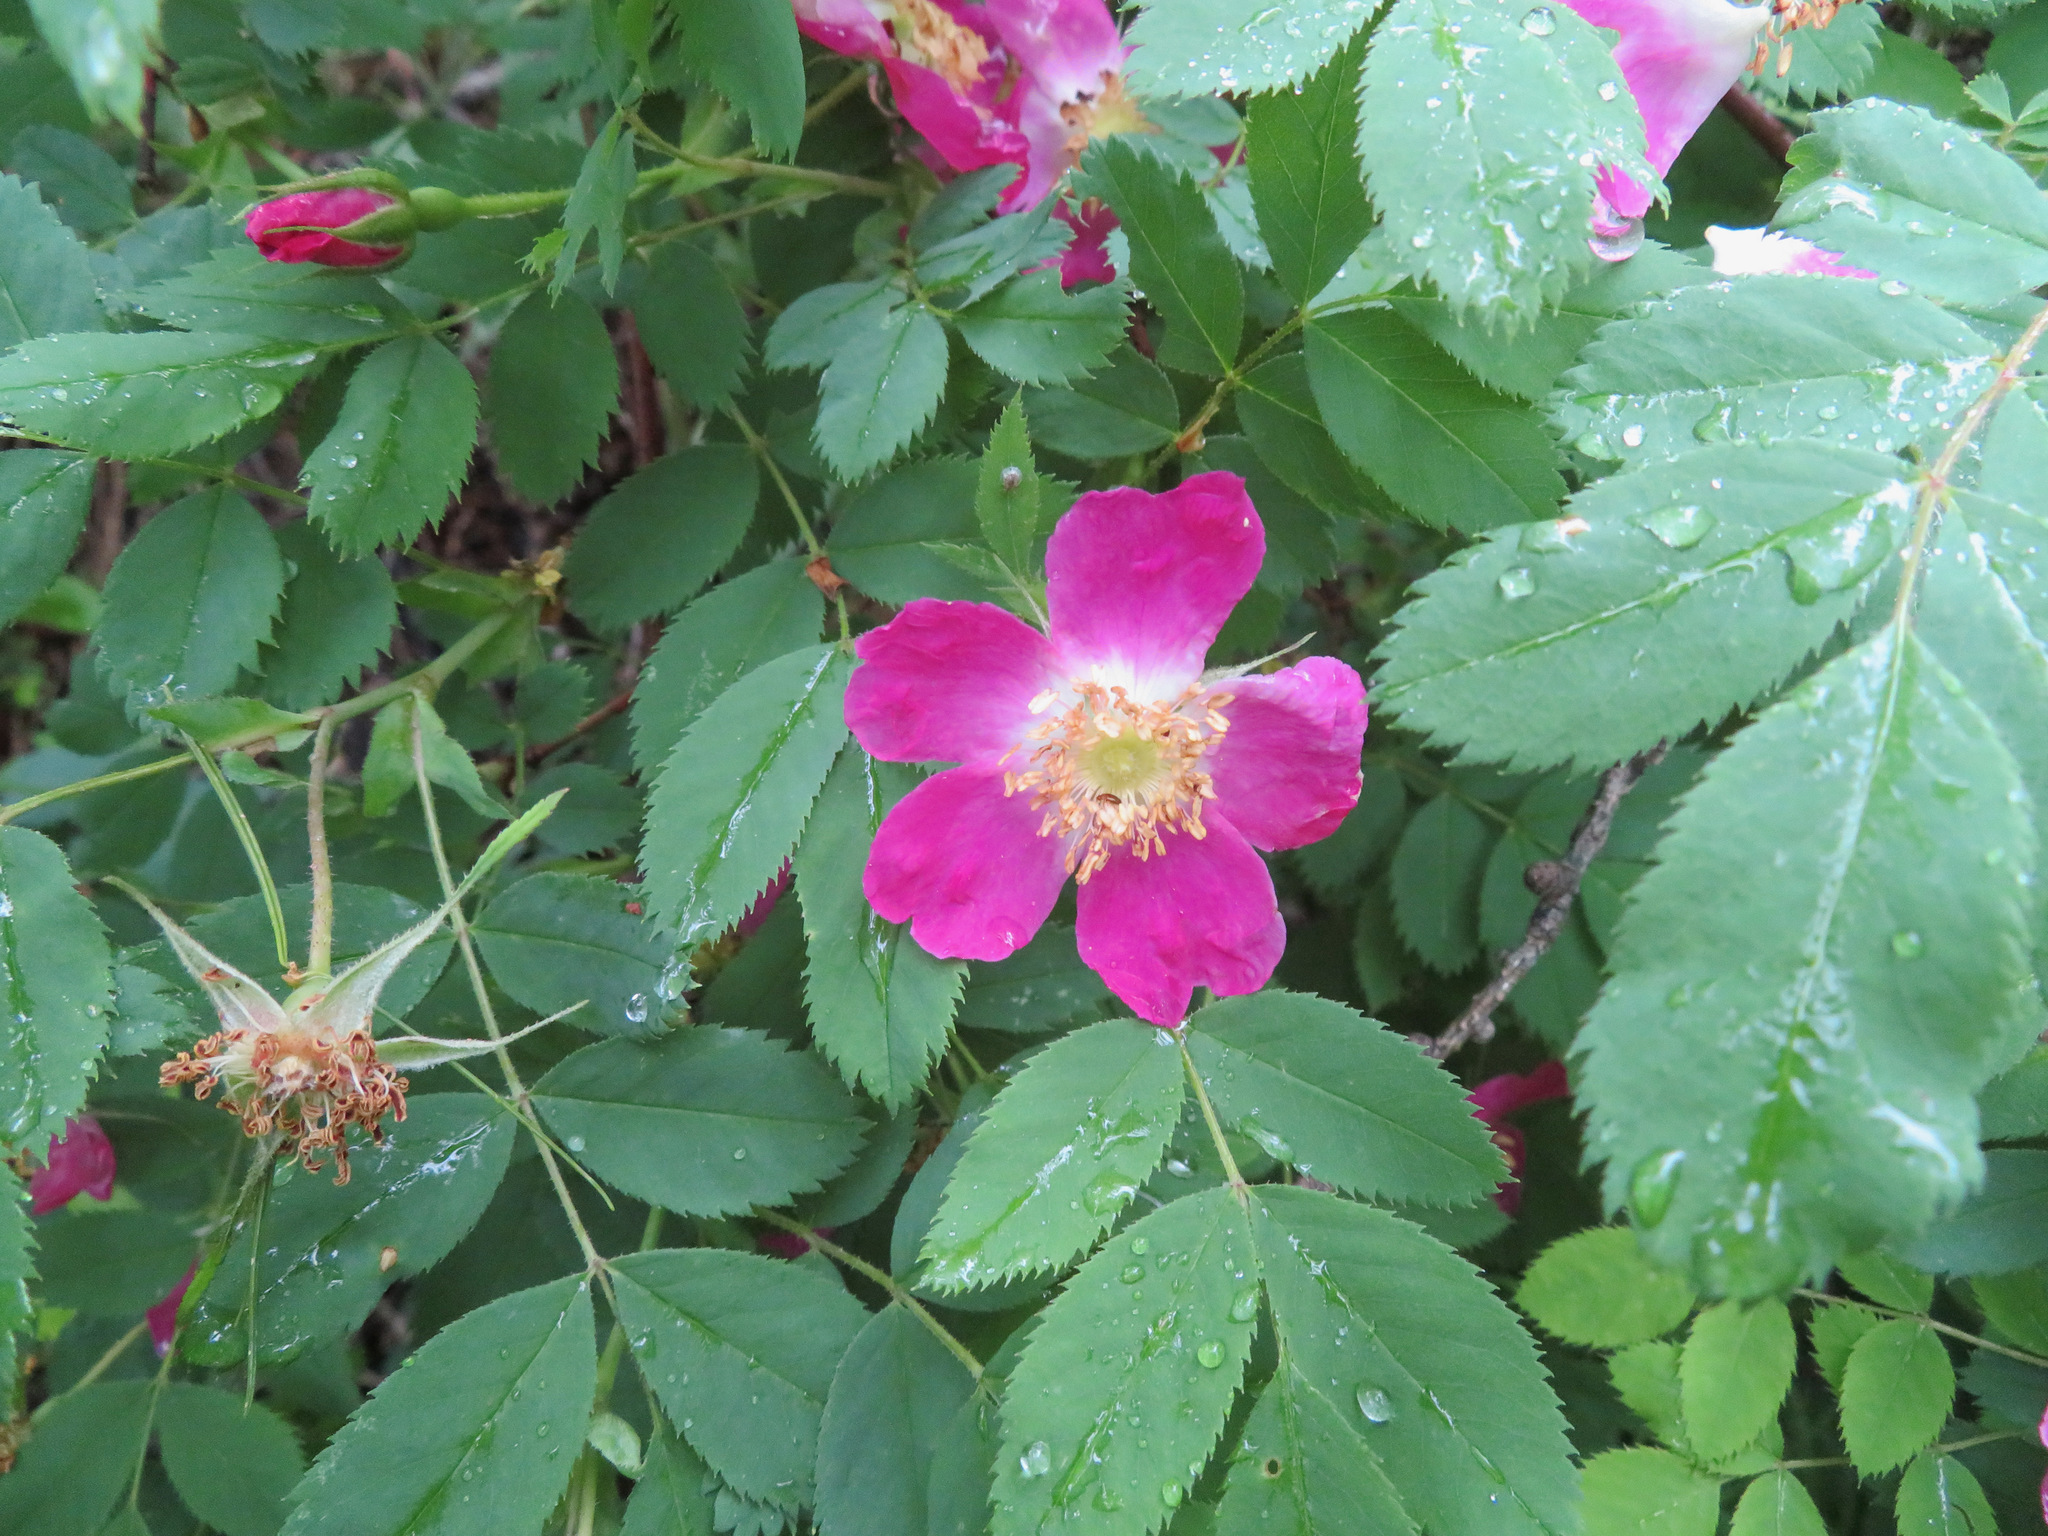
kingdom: Plantae
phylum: Tracheophyta
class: Magnoliopsida
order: Rosales
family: Rosaceae
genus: Rosa
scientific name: Rosa pendulina
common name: Alpine rose
